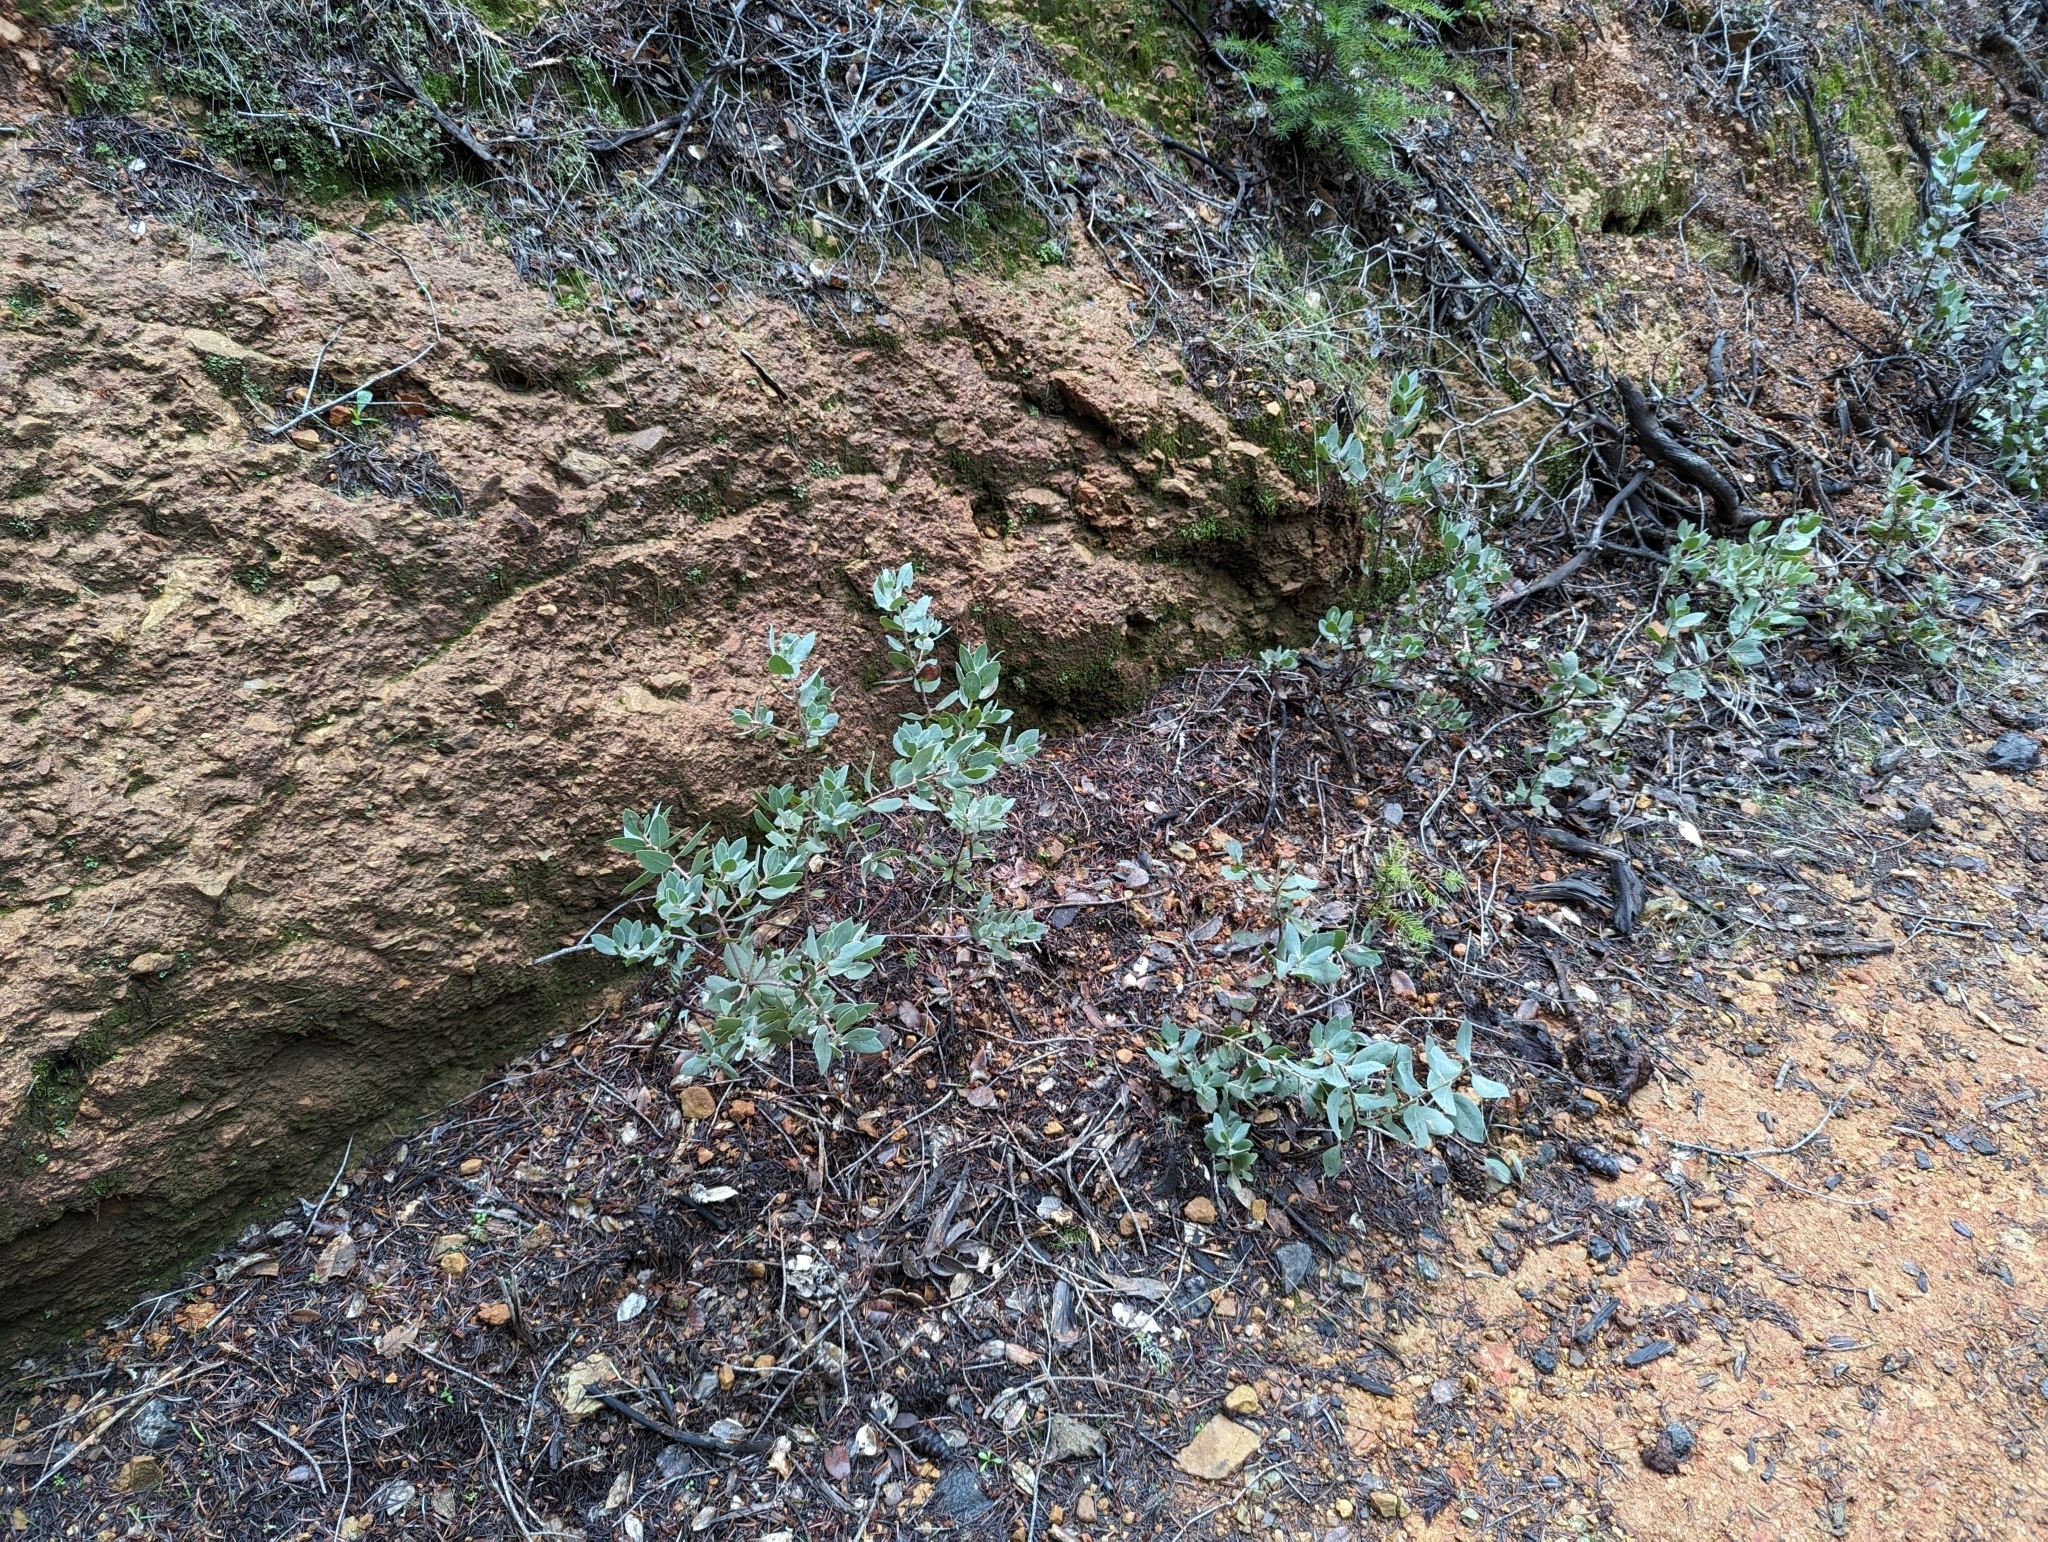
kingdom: Plantae
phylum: Tracheophyta
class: Magnoliopsida
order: Ericales
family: Ericaceae
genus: Arctostaphylos
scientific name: Arctostaphylos glandulosa
